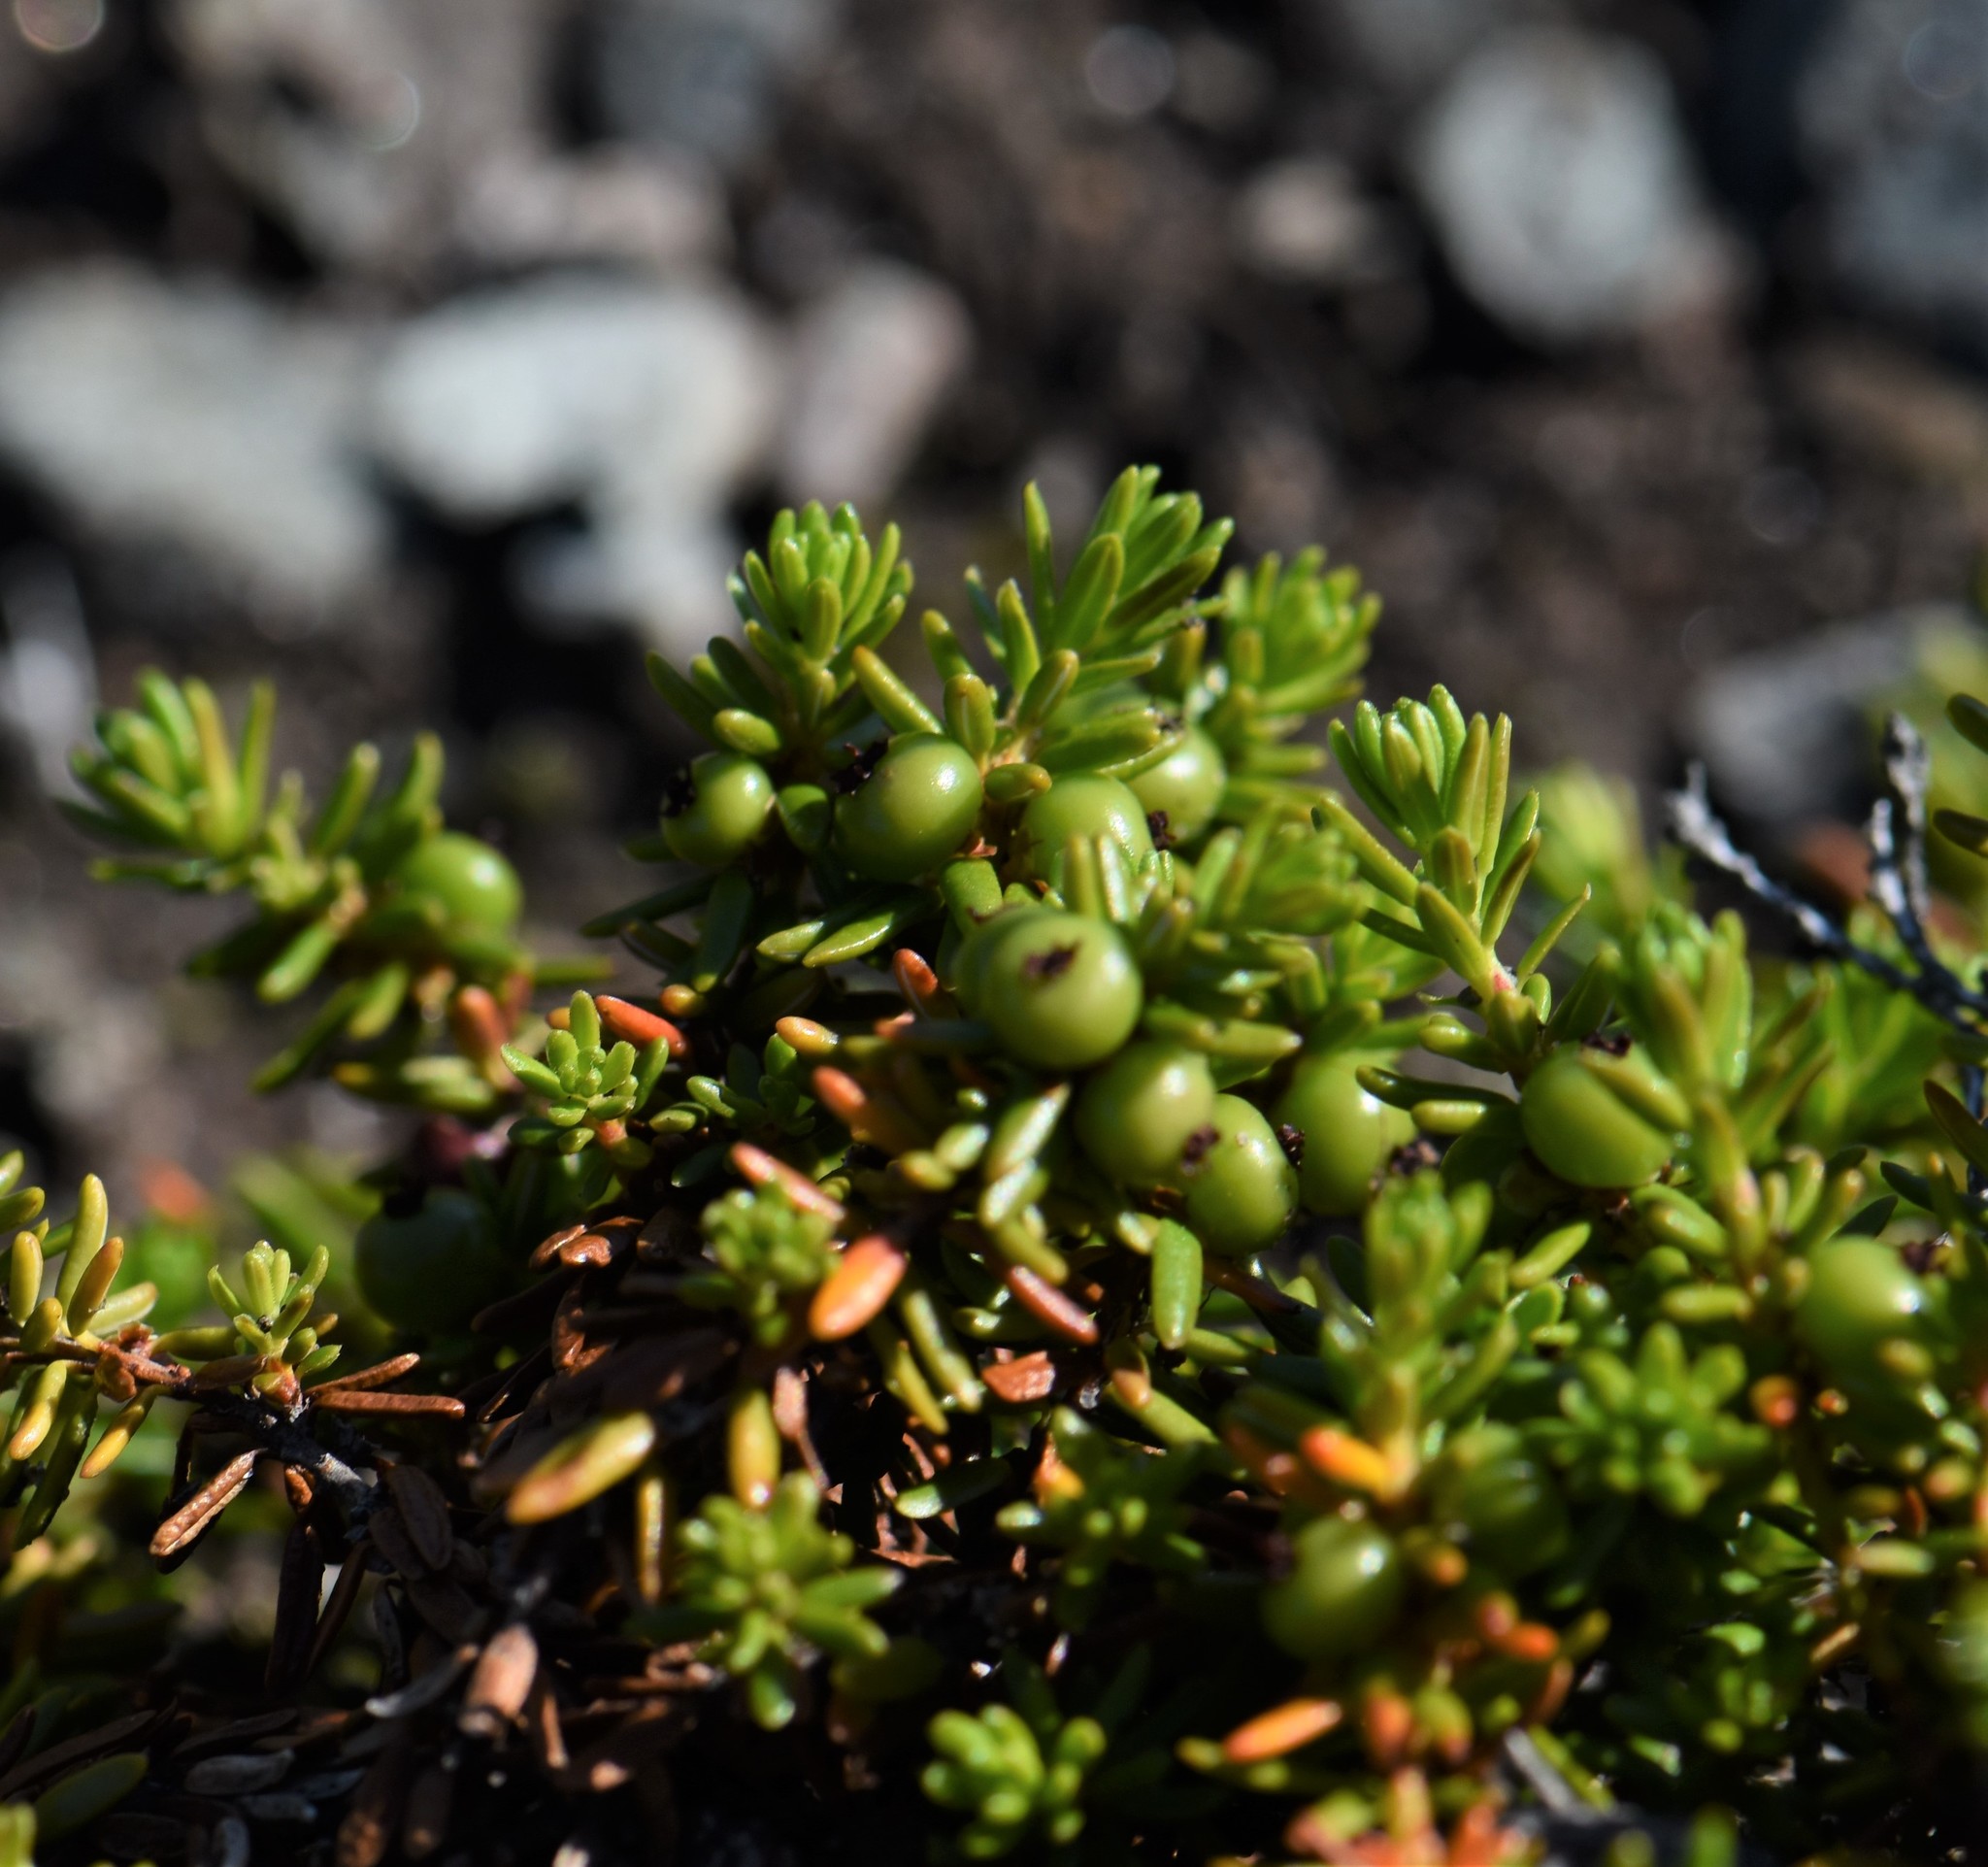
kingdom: Plantae
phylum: Tracheophyta
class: Magnoliopsida
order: Ericales
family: Ericaceae
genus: Empetrum
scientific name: Empetrum nigrum
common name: Black crowberry
